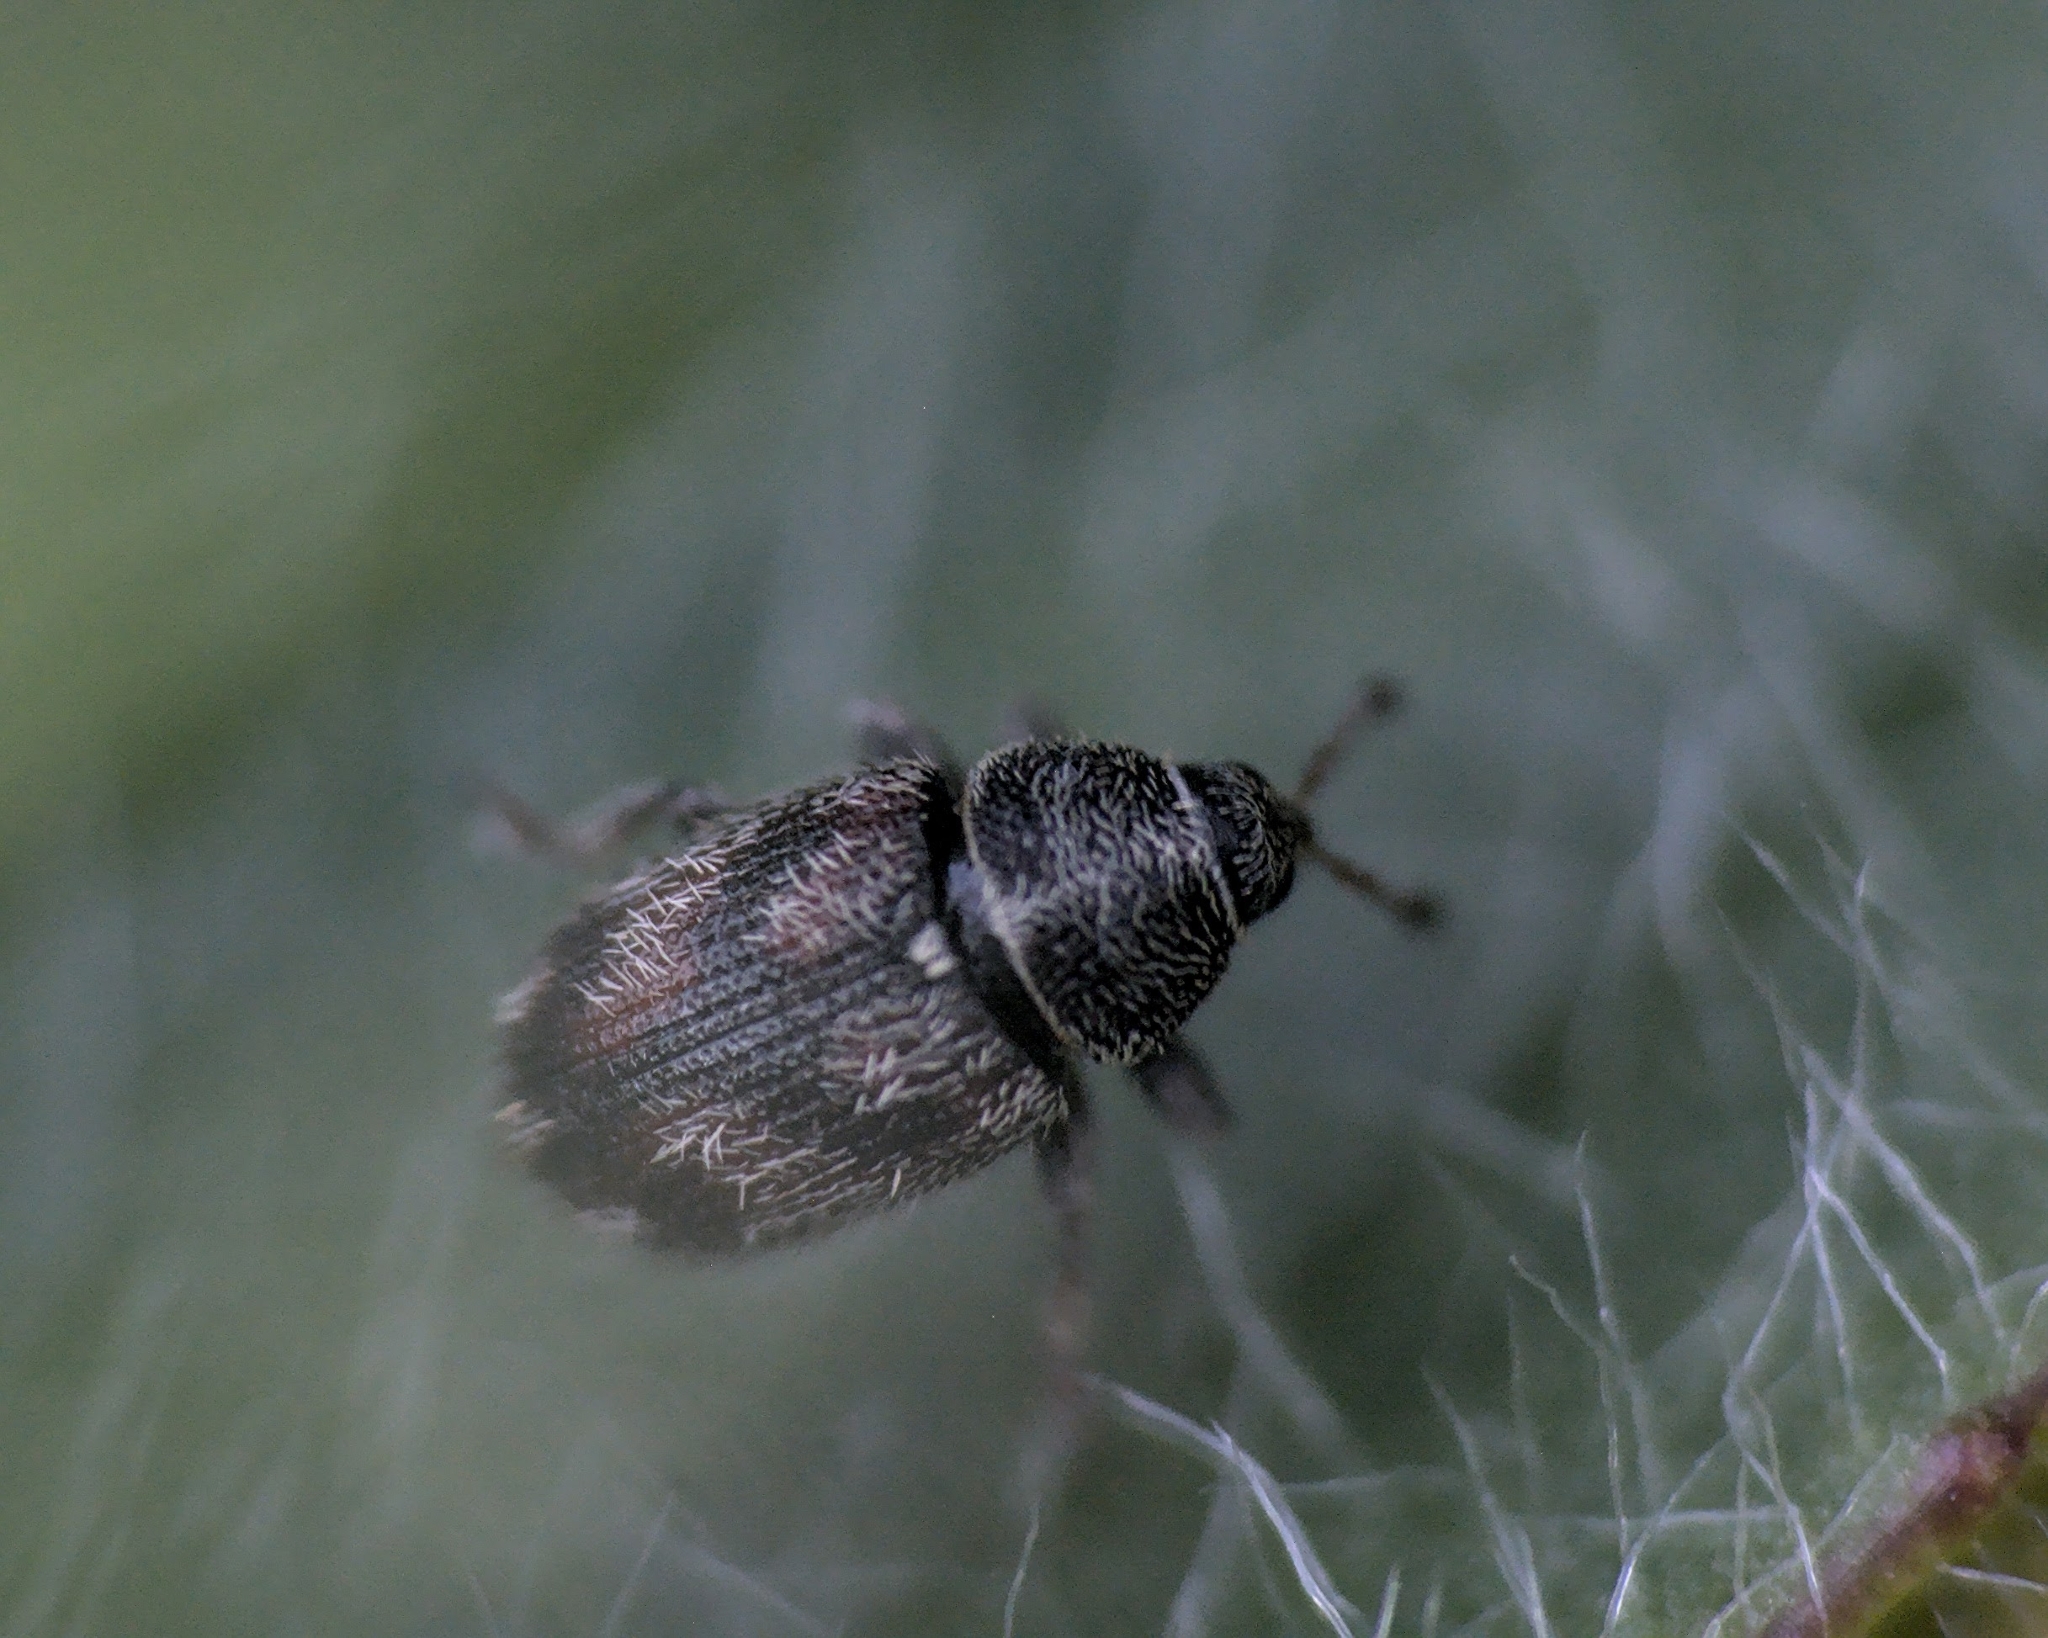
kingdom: Animalia
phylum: Arthropoda
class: Insecta
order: Coleoptera
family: Curculionidae
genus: Mecinus
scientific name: Mecinus labilis
